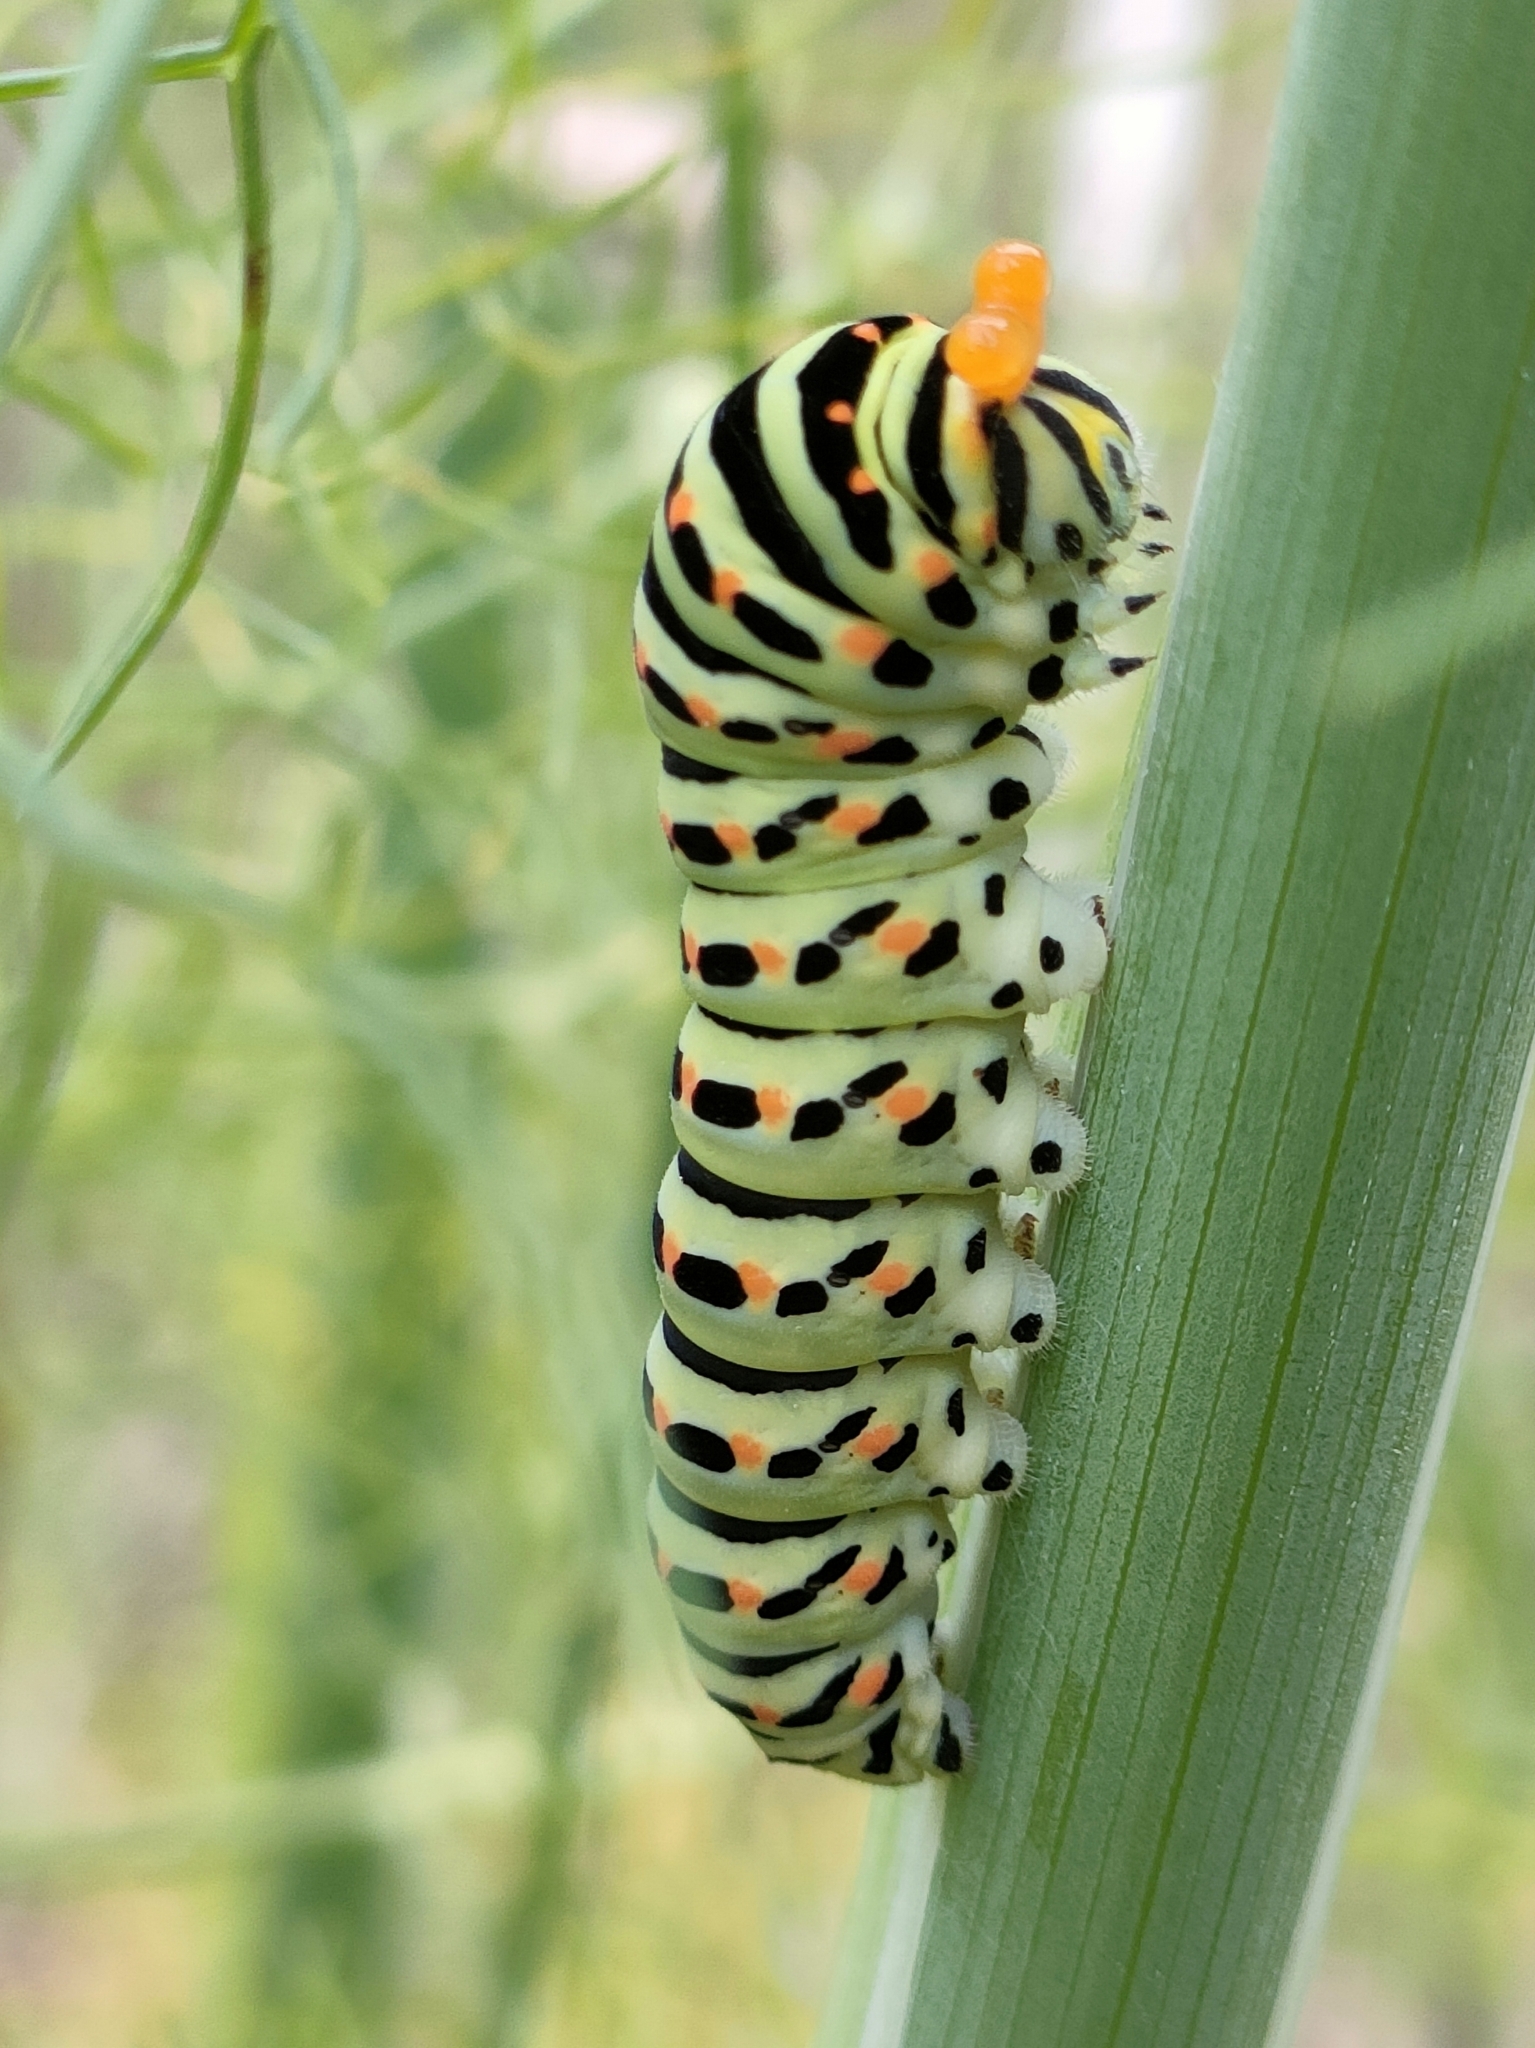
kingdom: Animalia
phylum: Arthropoda
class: Insecta
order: Lepidoptera
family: Papilionidae
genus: Papilio
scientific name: Papilio machaon
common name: Swallowtail
